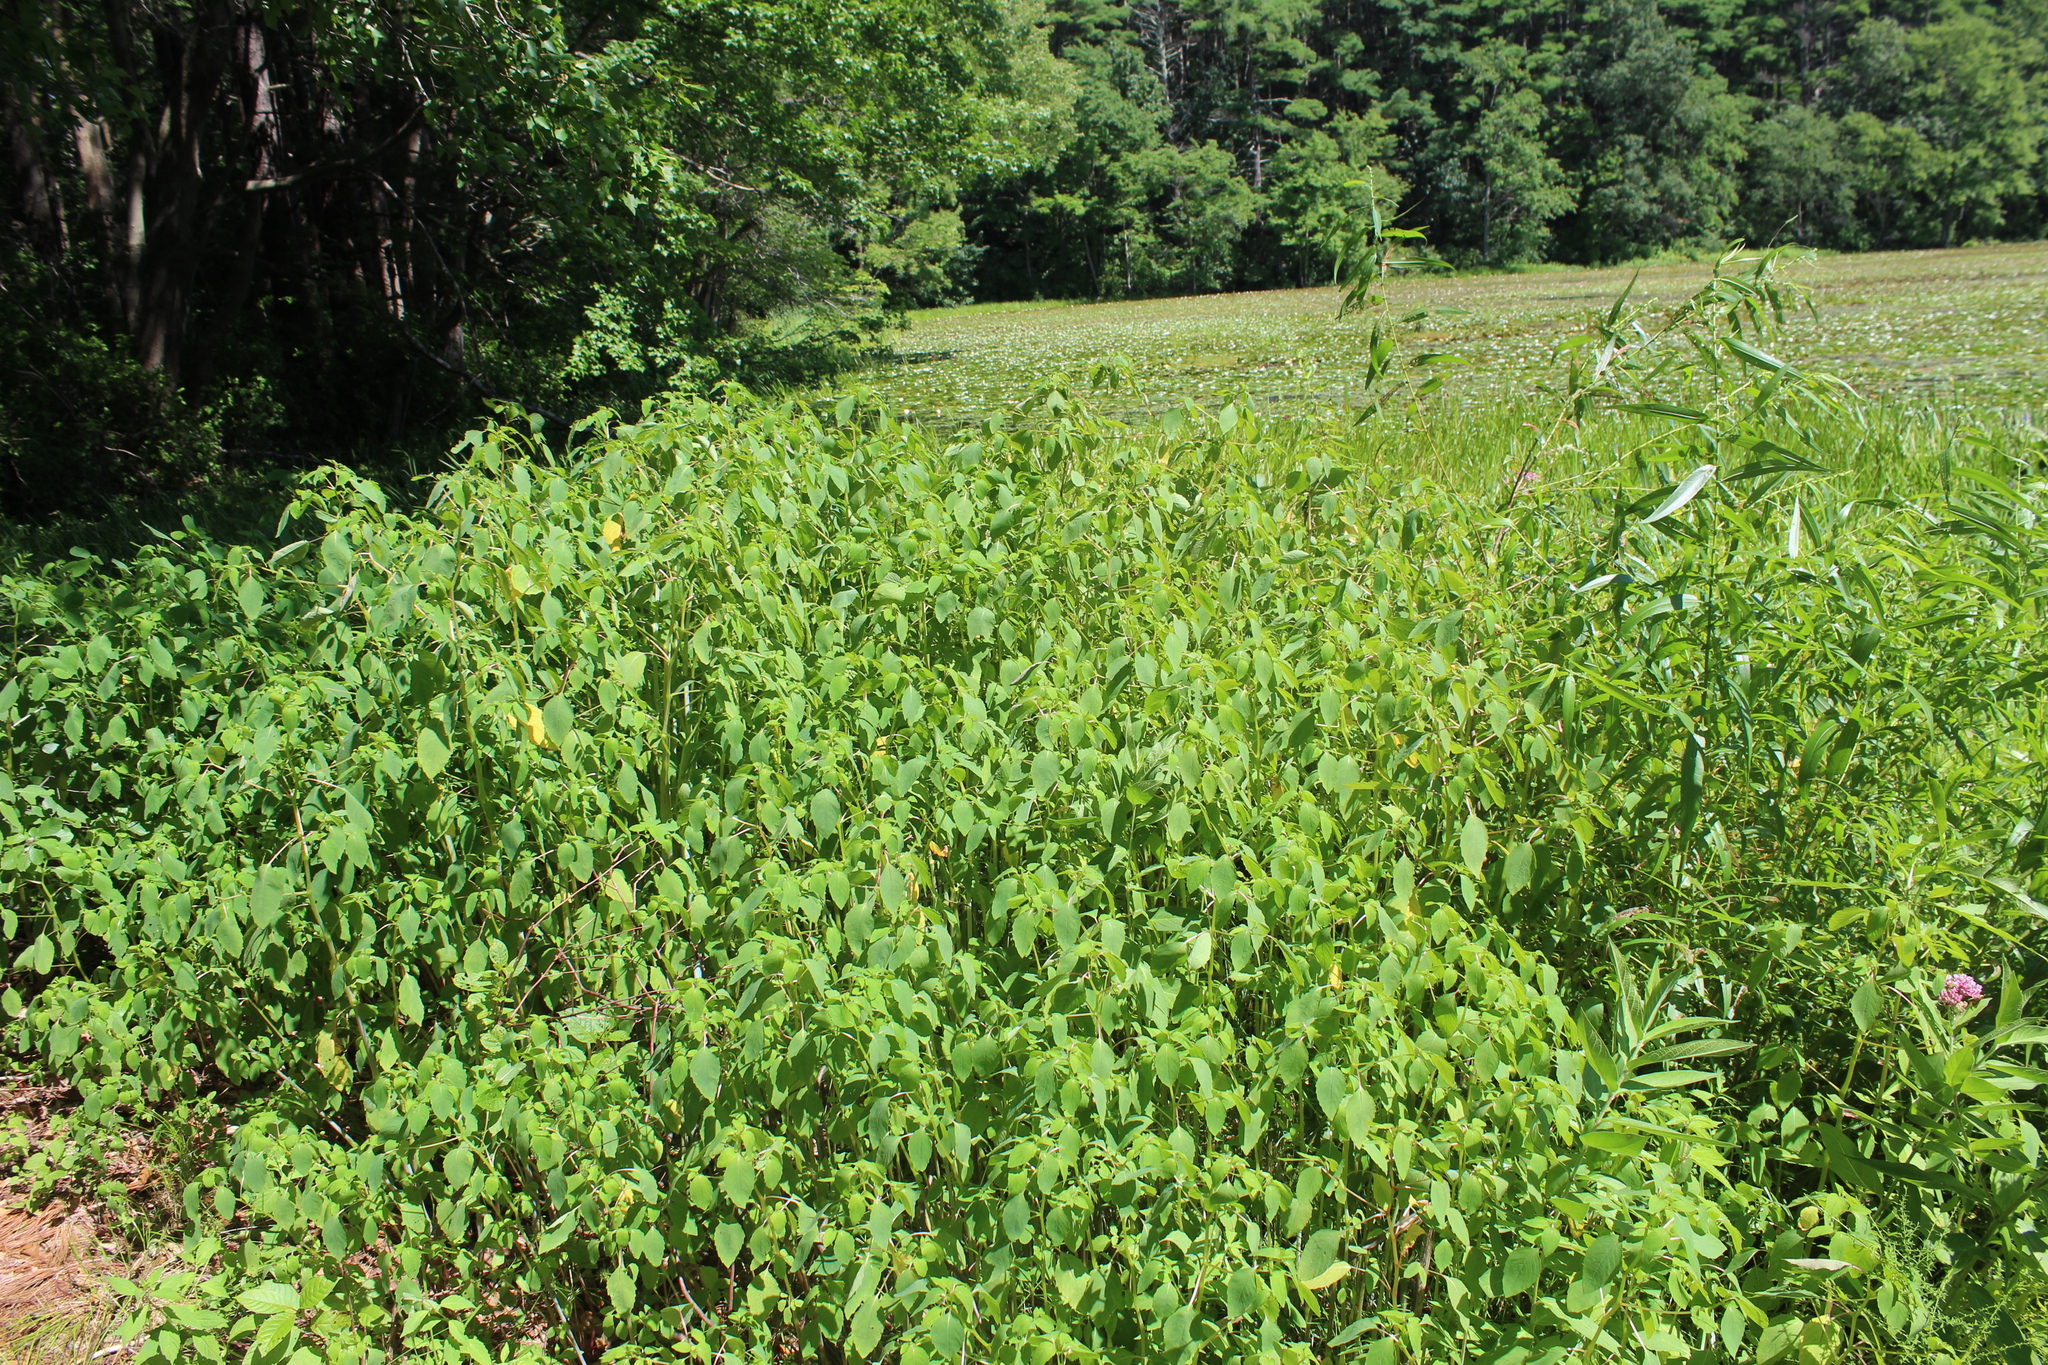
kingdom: Plantae
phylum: Tracheophyta
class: Magnoliopsida
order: Ericales
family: Balsaminaceae
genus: Impatiens
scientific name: Impatiens
